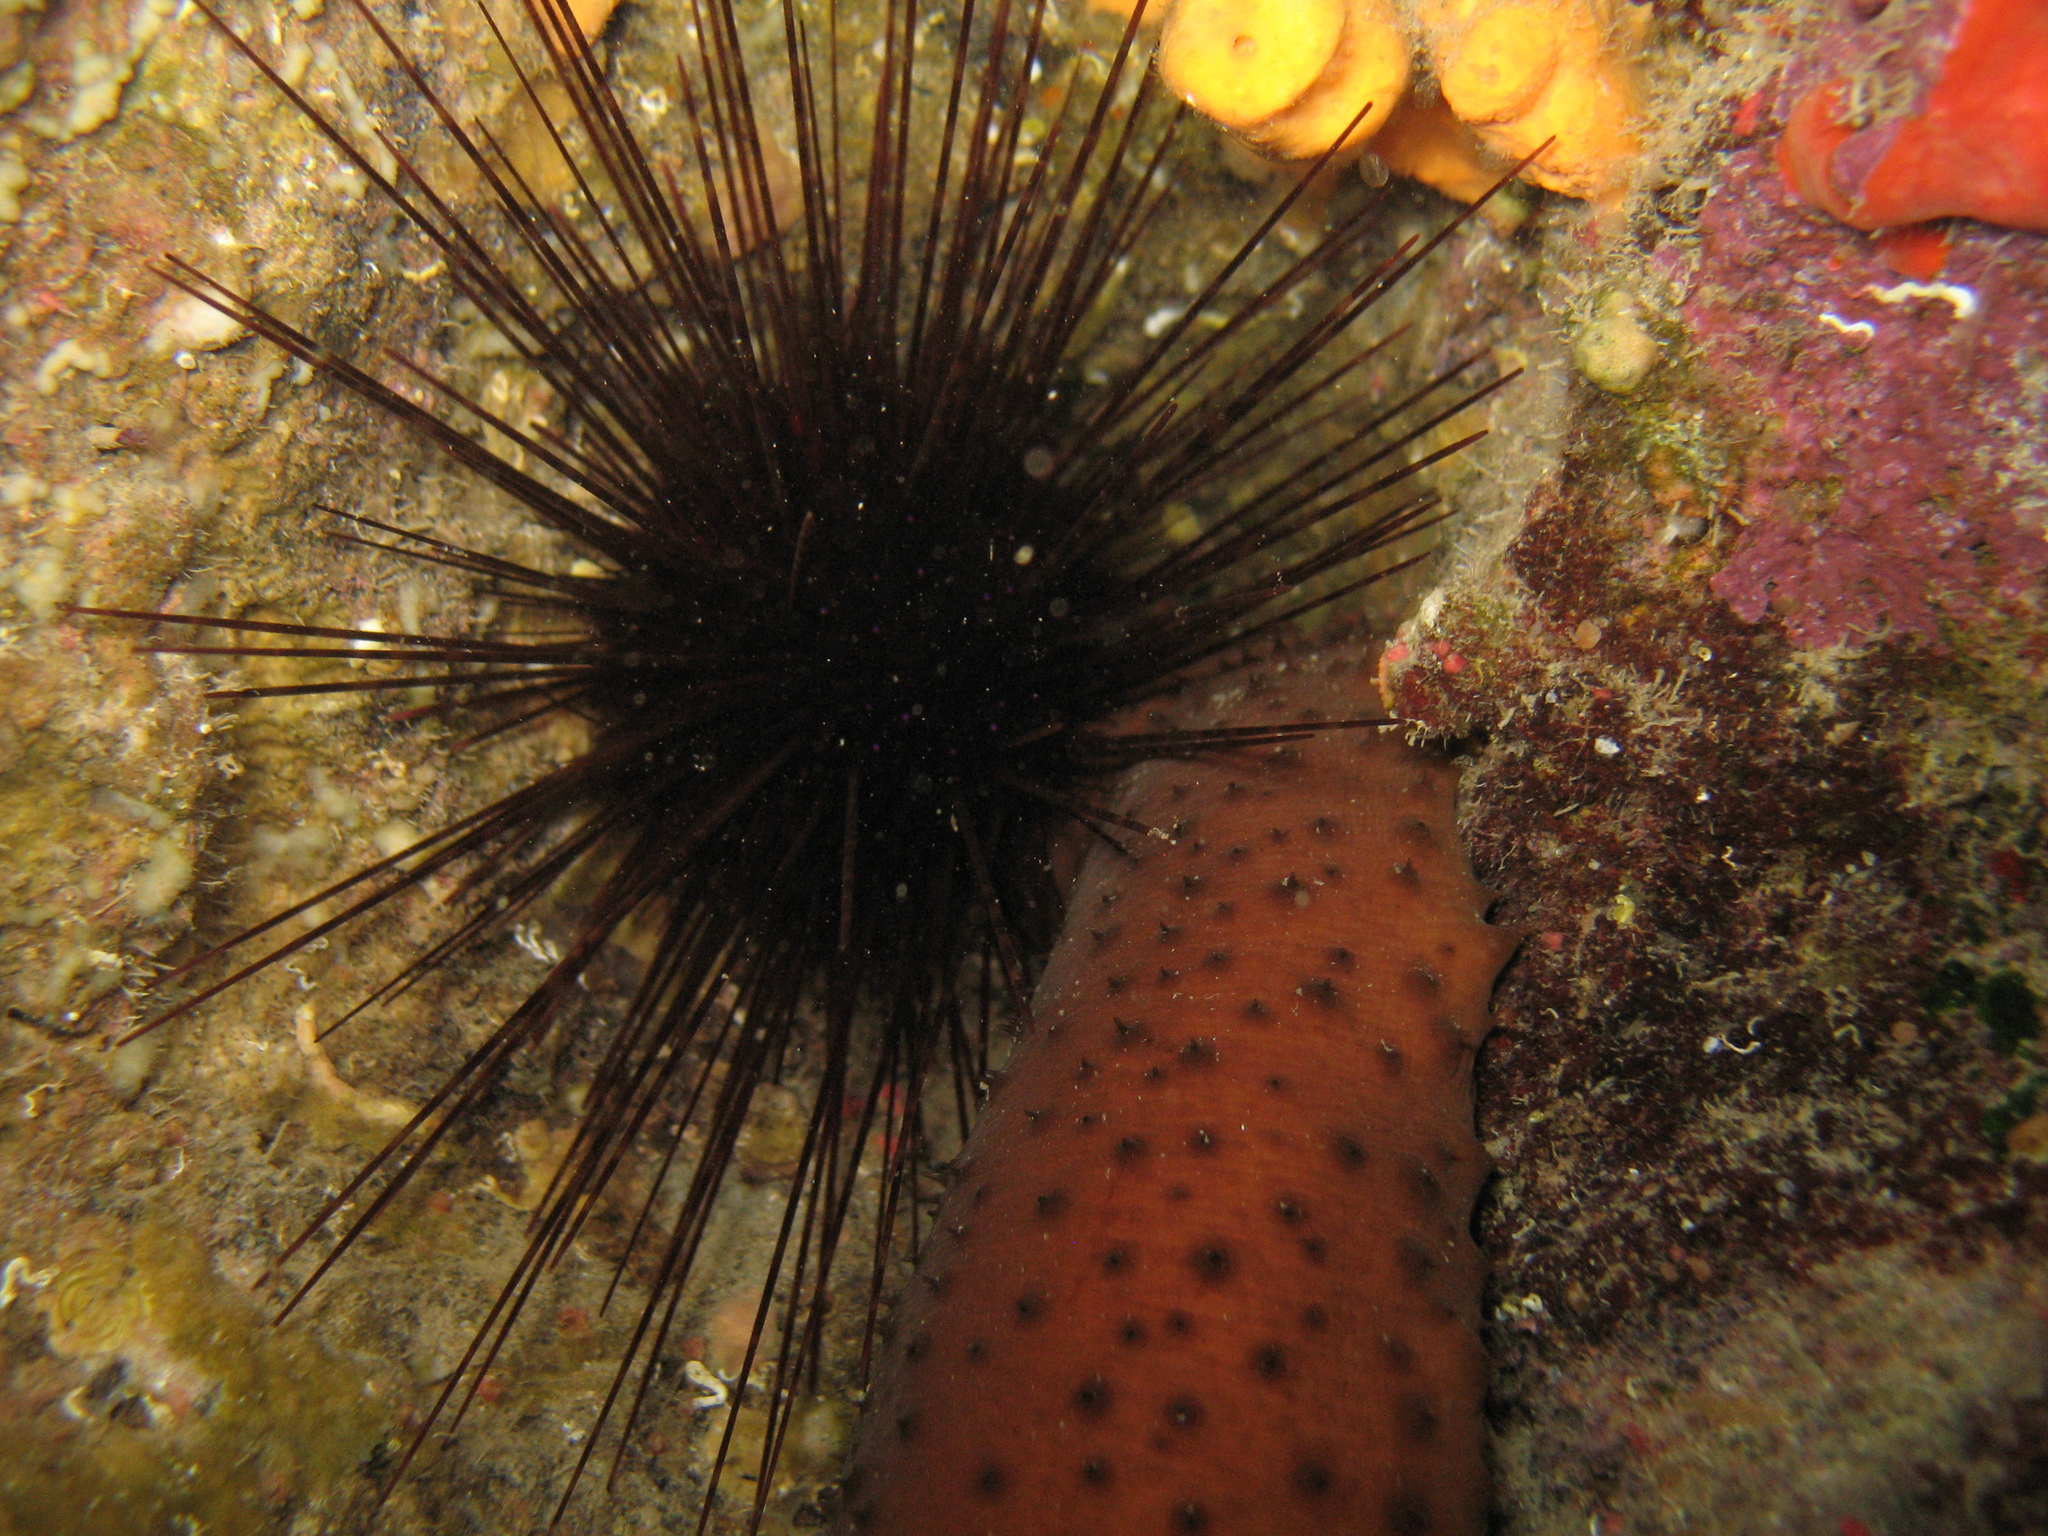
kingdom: Animalia
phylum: Echinodermata
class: Echinoidea
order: Diadematoida
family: Diadematidae
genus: Centrostephanus
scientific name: Centrostephanus longispinus
